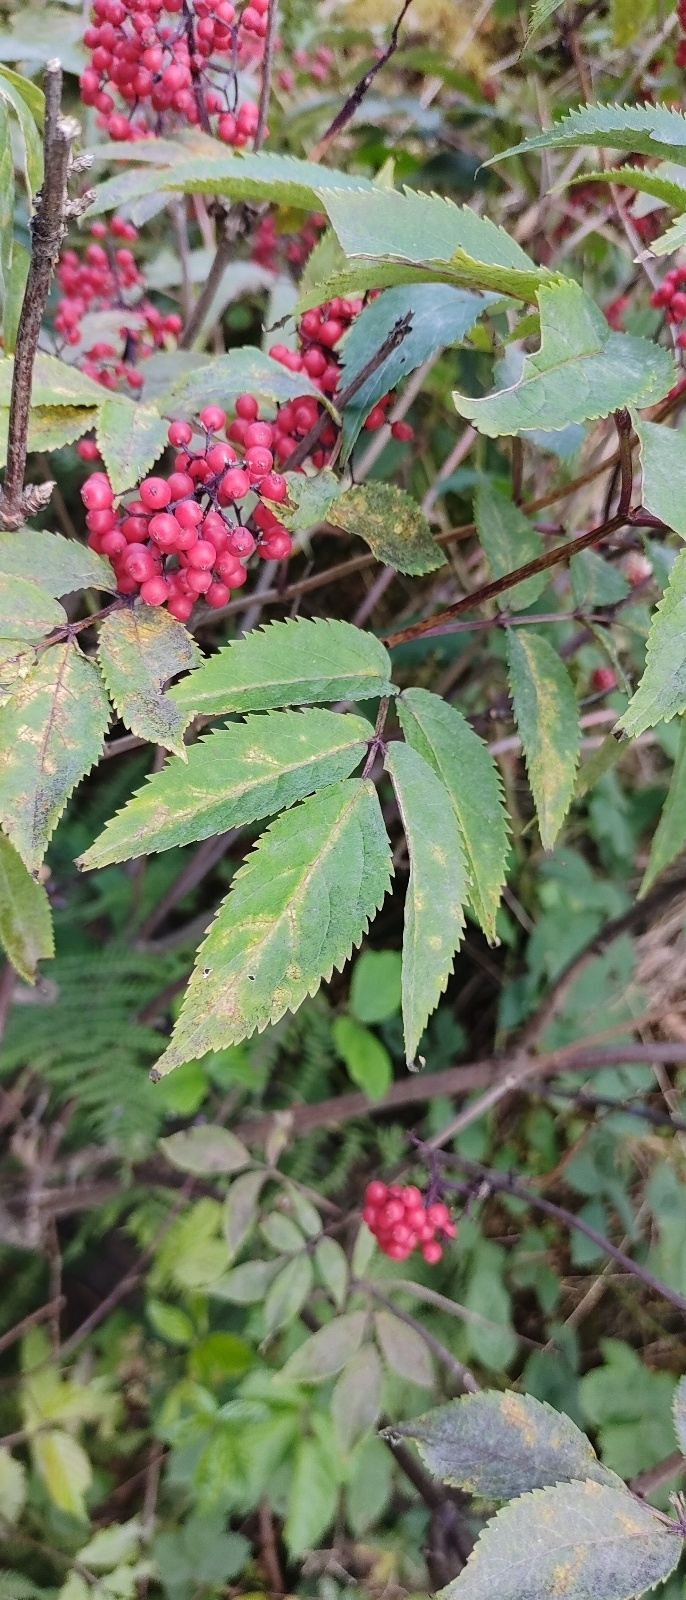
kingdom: Plantae
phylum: Tracheophyta
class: Magnoliopsida
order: Dipsacales
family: Viburnaceae
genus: Sambucus
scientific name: Sambucus racemosa
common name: Red-berried elder
